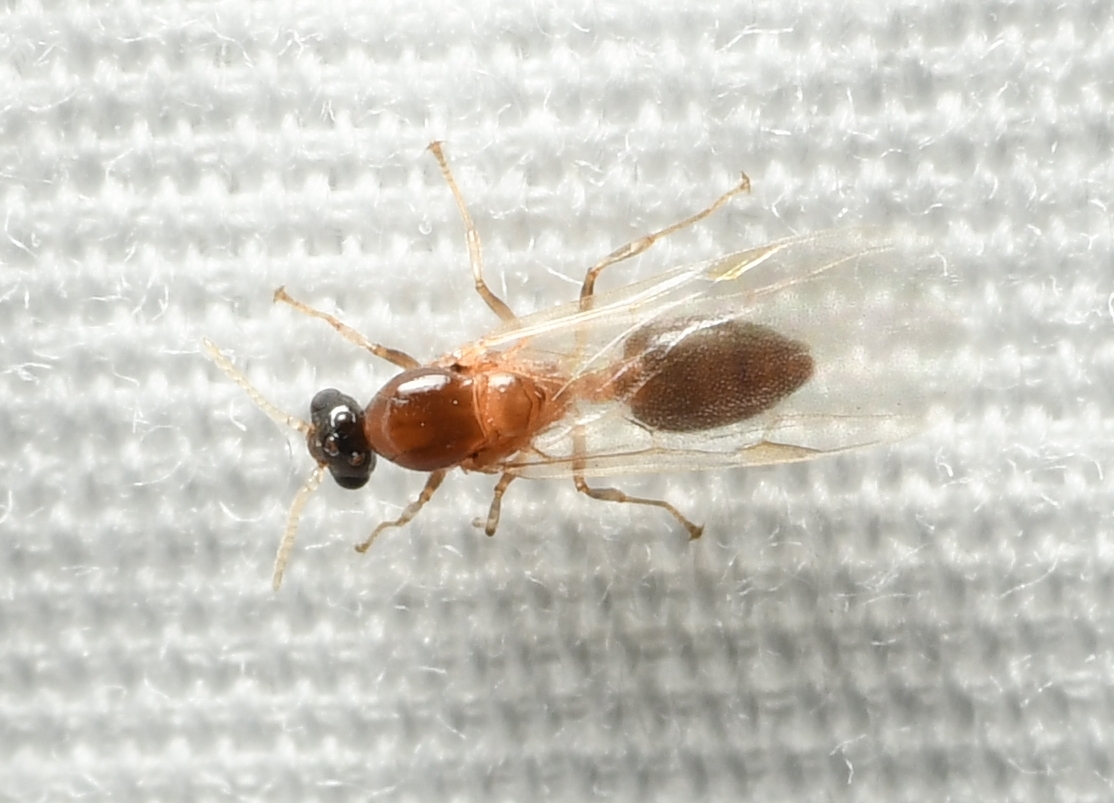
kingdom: Animalia
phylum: Arthropoda
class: Insecta
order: Hymenoptera
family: Formicidae
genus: Crematogaster
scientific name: Crematogaster
